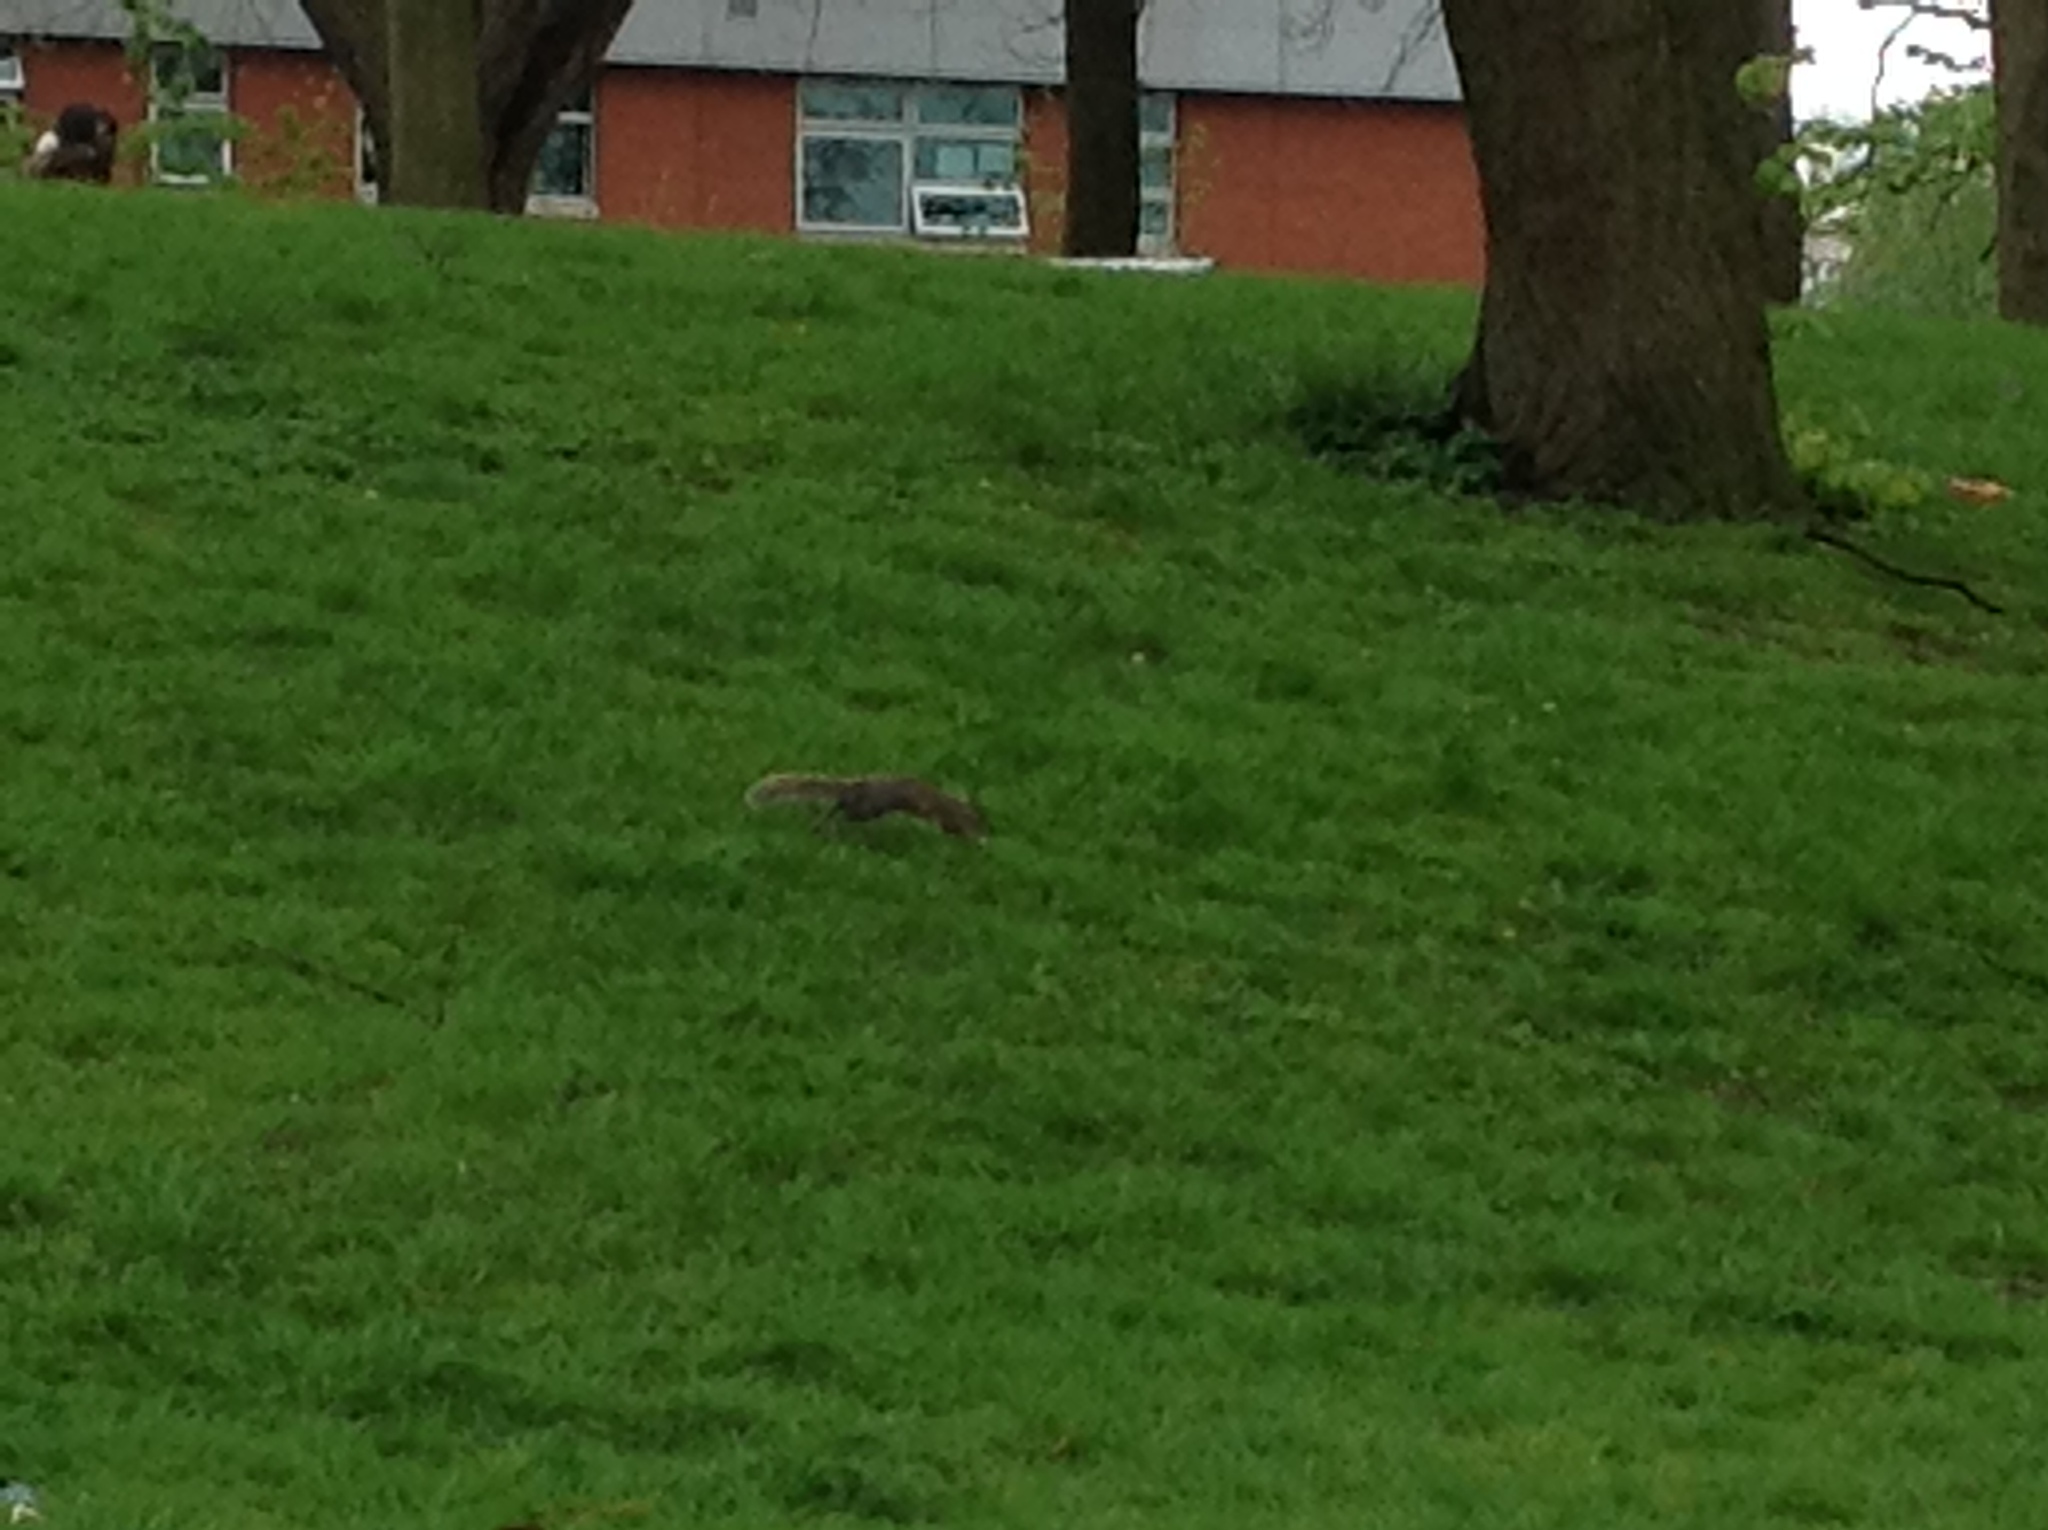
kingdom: Animalia
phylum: Chordata
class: Mammalia
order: Rodentia
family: Sciuridae
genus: Sciurus
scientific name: Sciurus carolinensis
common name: Eastern gray squirrel
